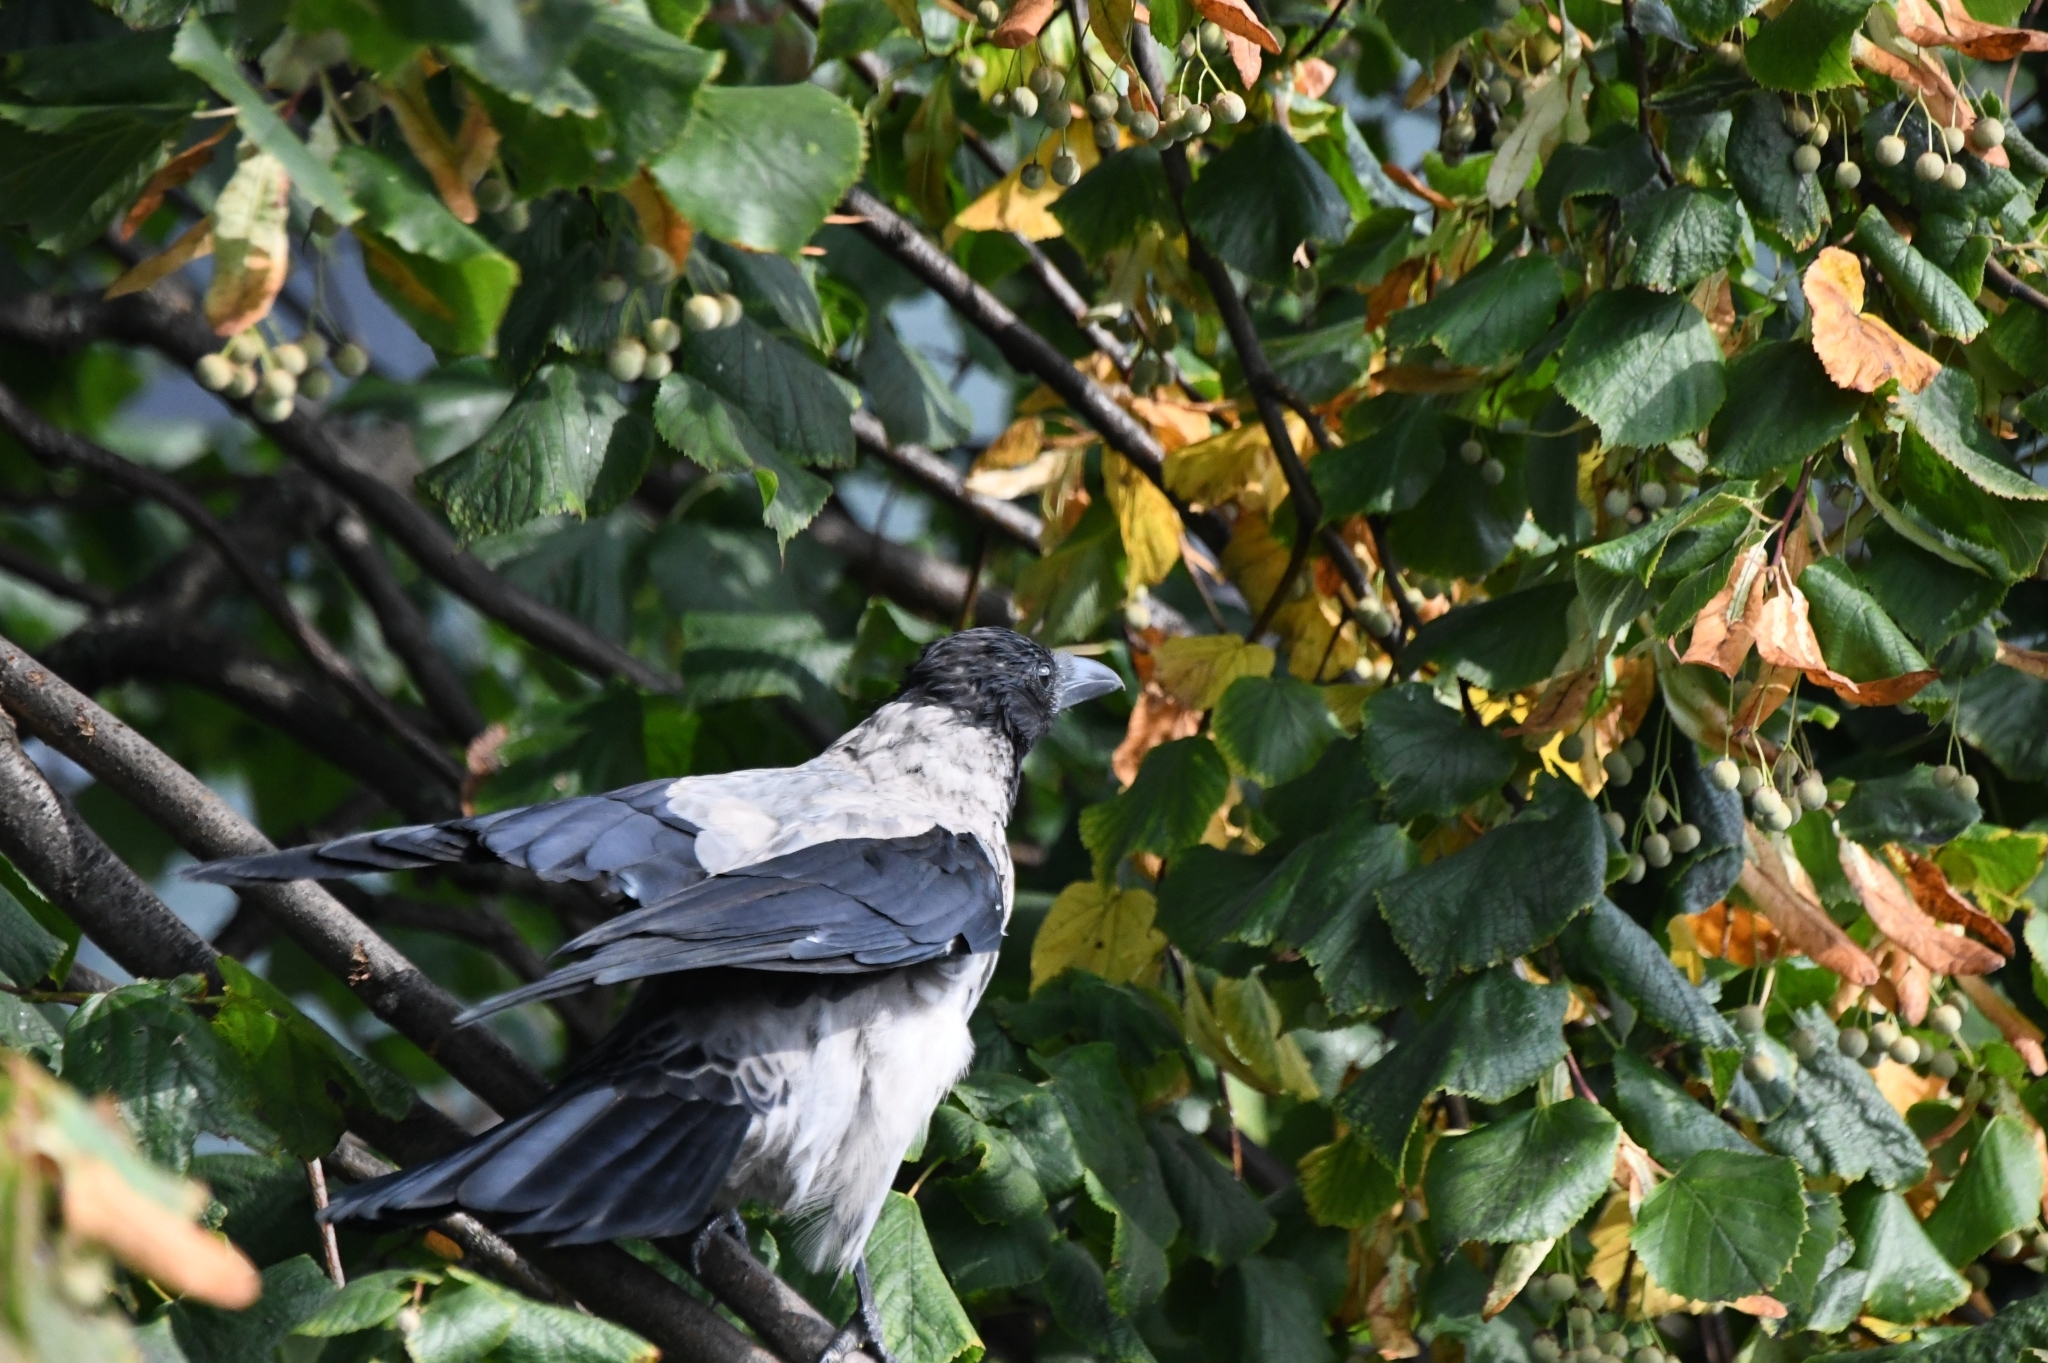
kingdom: Animalia
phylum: Chordata
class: Aves
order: Passeriformes
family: Corvidae
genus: Corvus
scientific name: Corvus cornix
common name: Hooded crow
